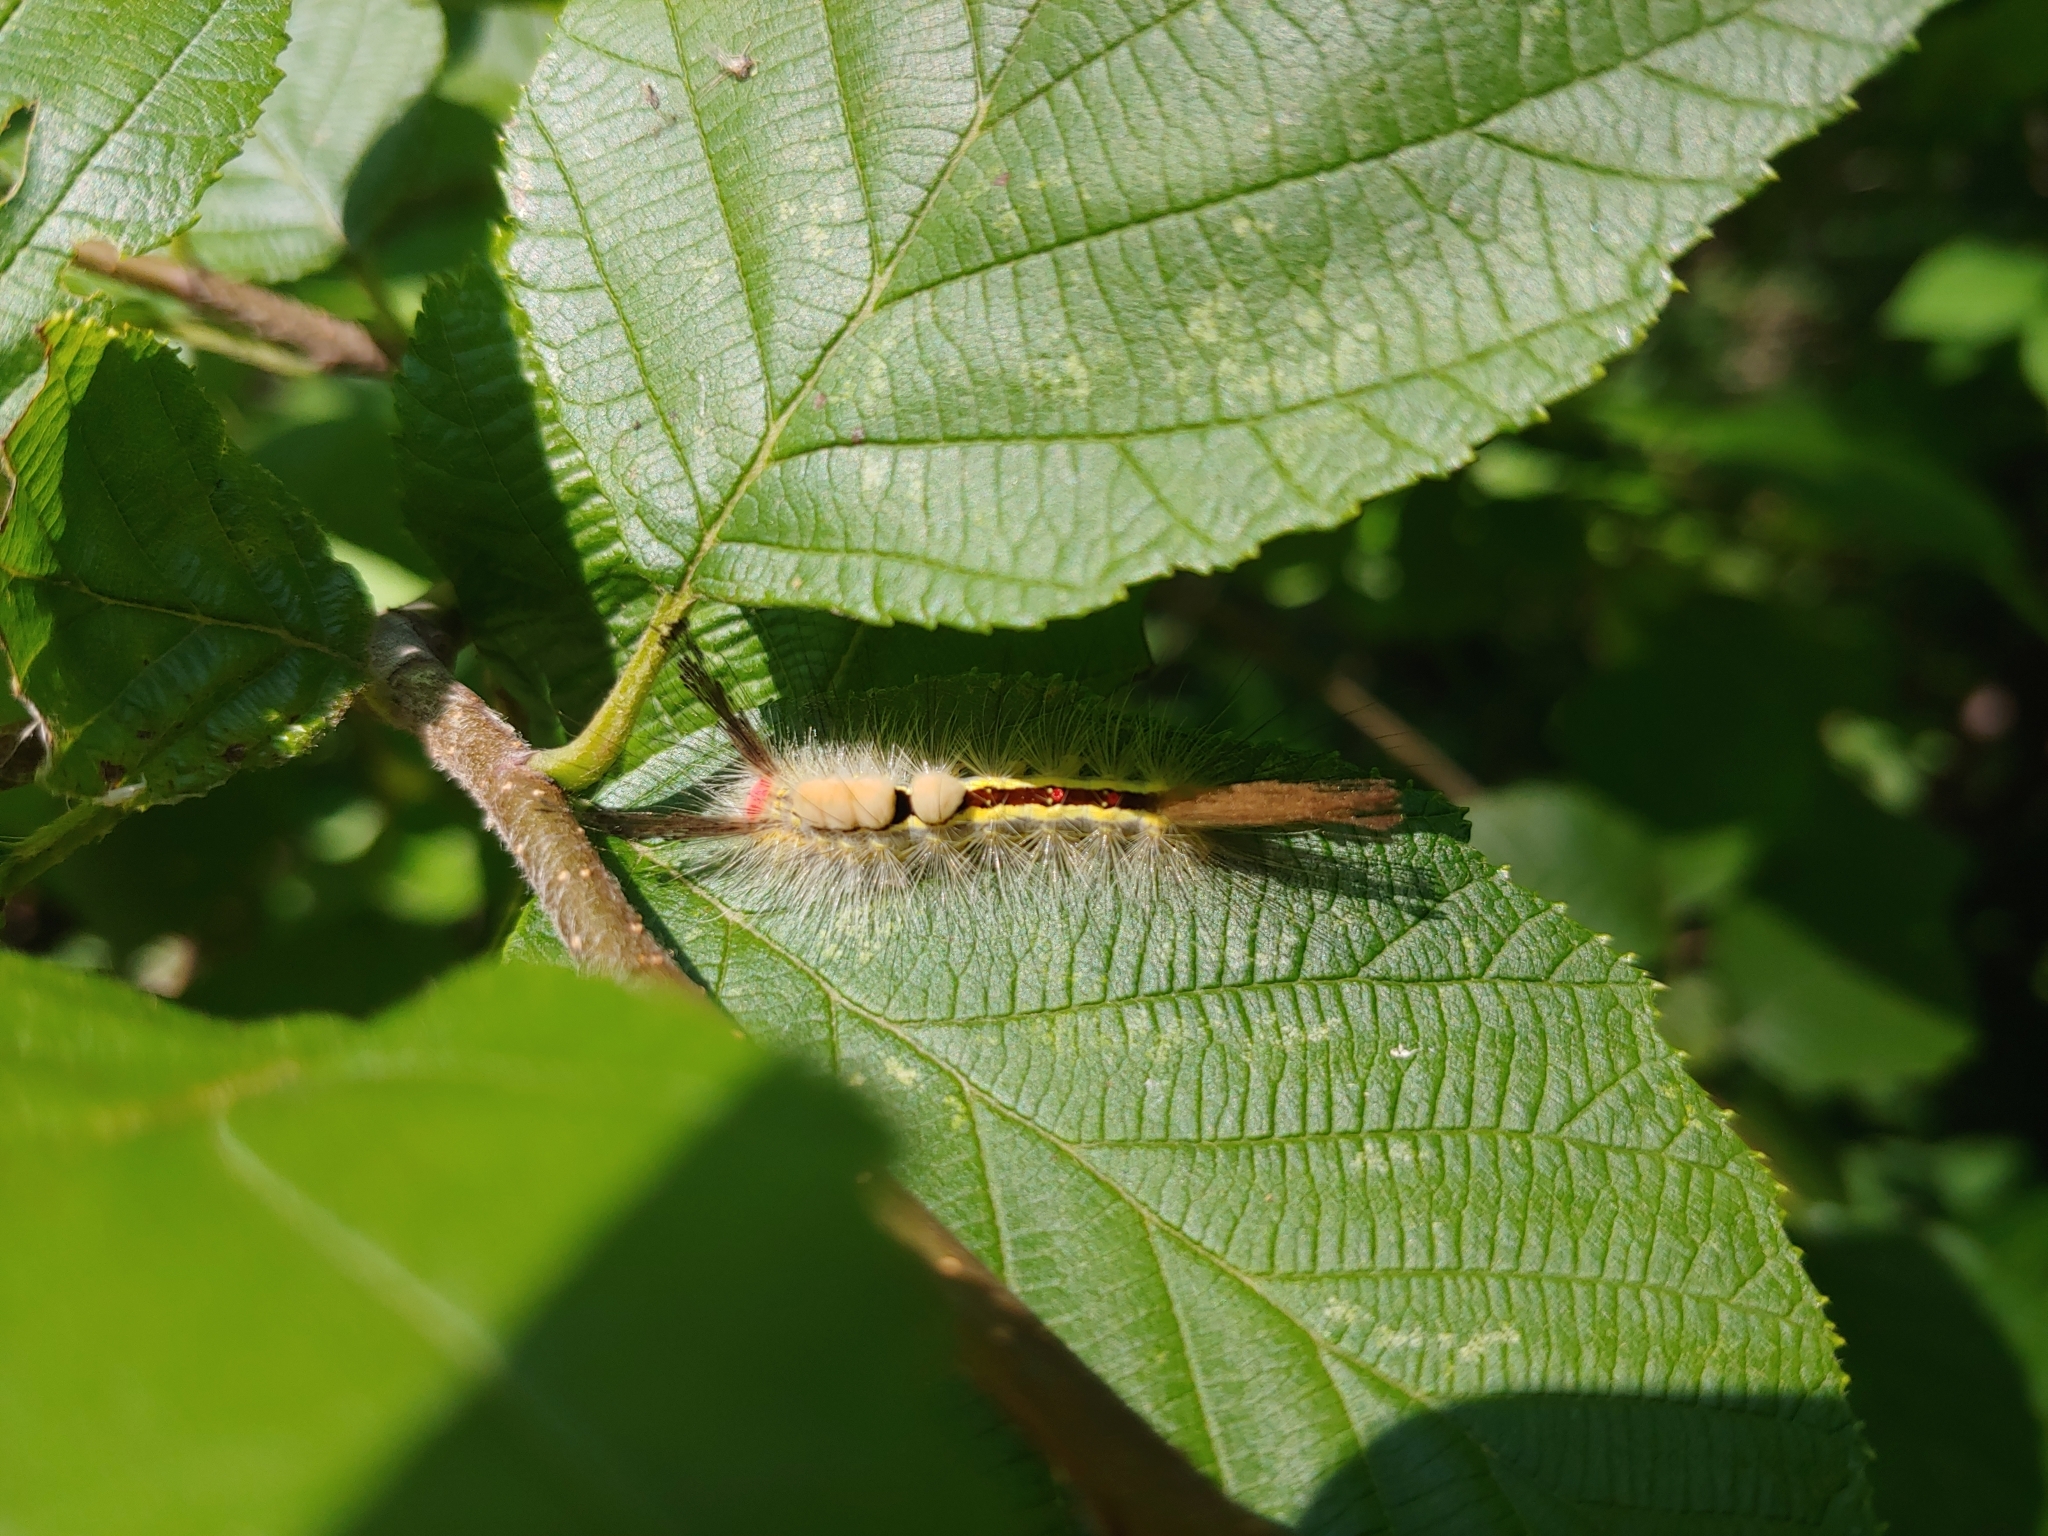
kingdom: Animalia
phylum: Arthropoda
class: Insecta
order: Lepidoptera
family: Erebidae
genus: Orgyia
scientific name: Orgyia leucostigma
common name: White-marked tussock moth
